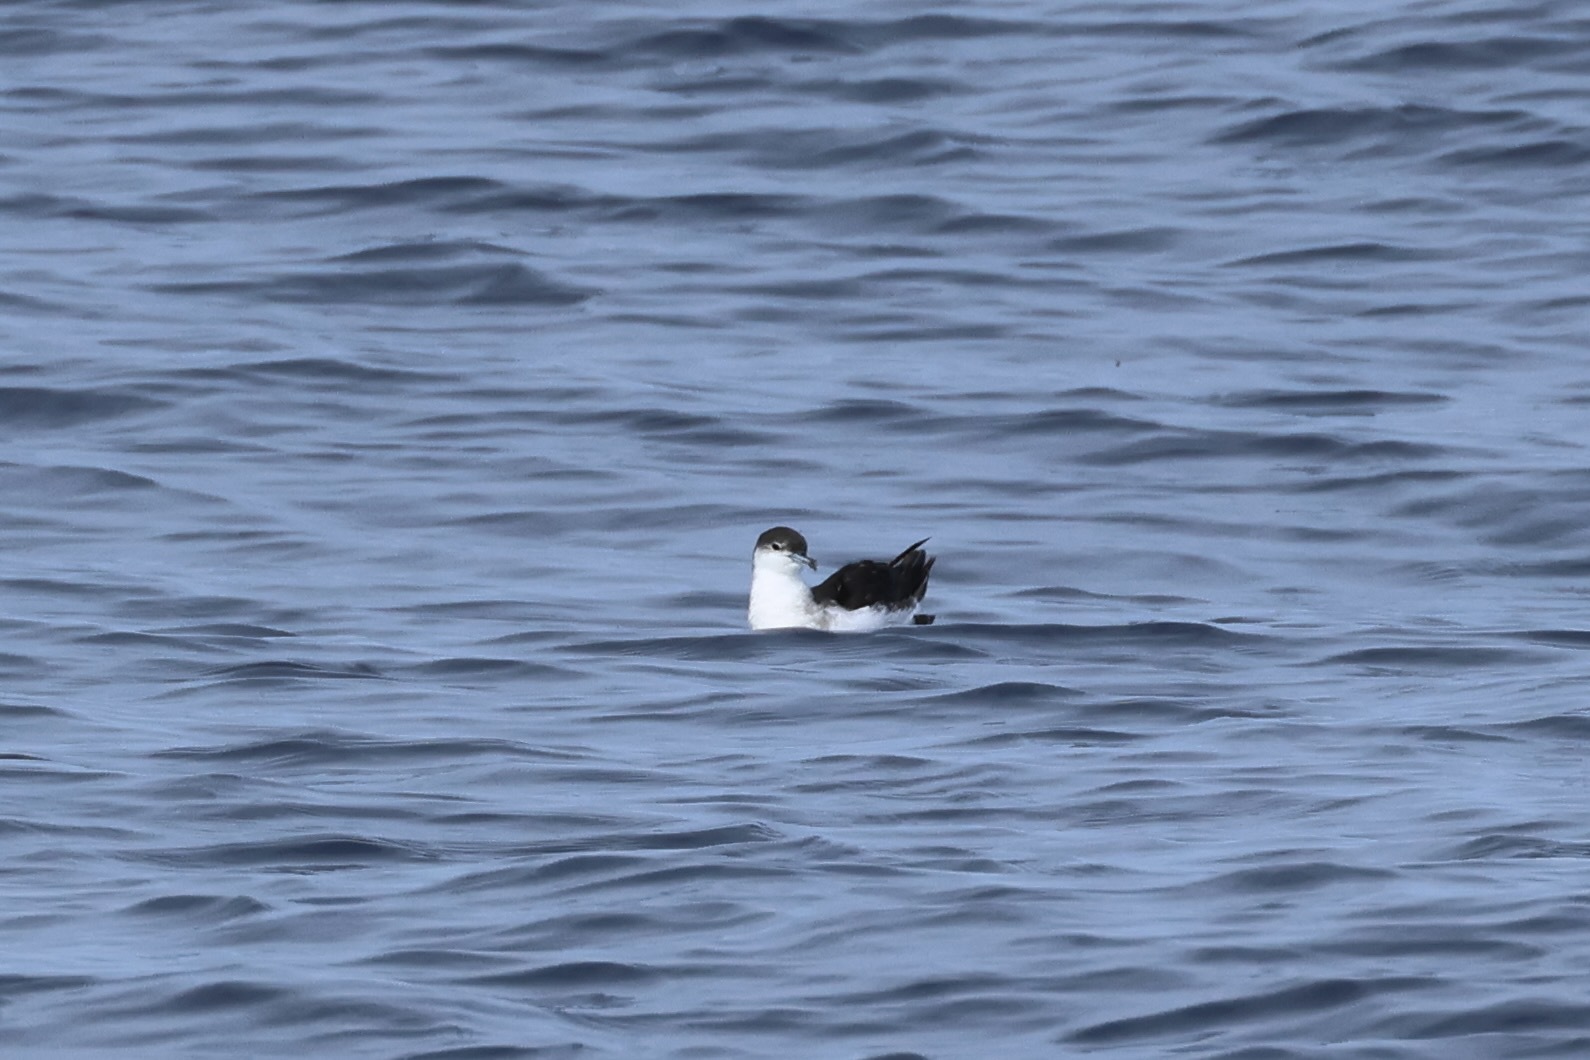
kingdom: Animalia
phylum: Chordata
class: Aves
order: Procellariiformes
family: Procellariidae
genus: Puffinus
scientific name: Puffinus lherminieri
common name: Audubon's shearwater
